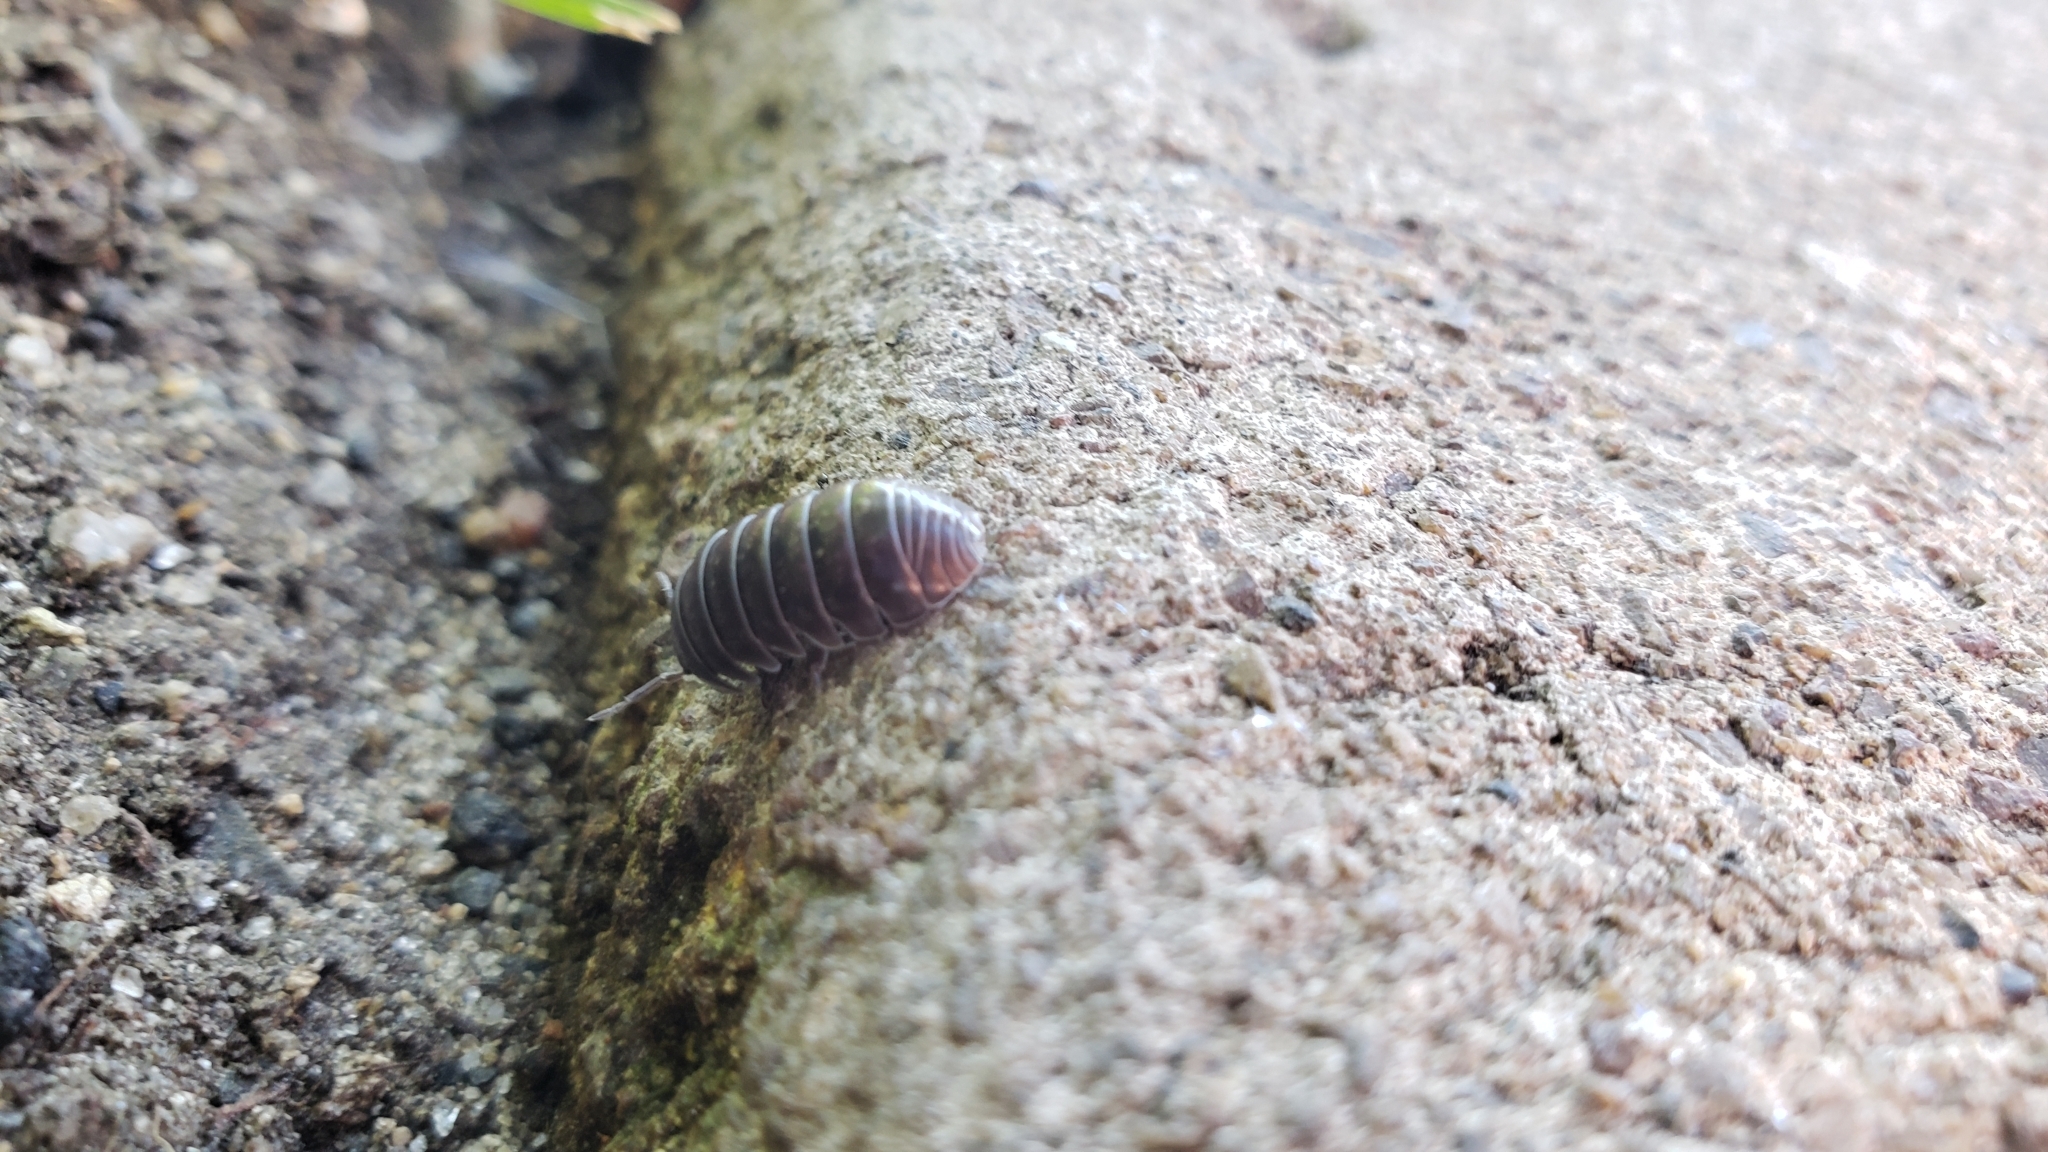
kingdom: Animalia
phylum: Arthropoda
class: Malacostraca
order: Isopoda
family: Armadillidiidae
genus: Armadillidium
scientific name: Armadillidium vulgare
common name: Common pill woodlouse
